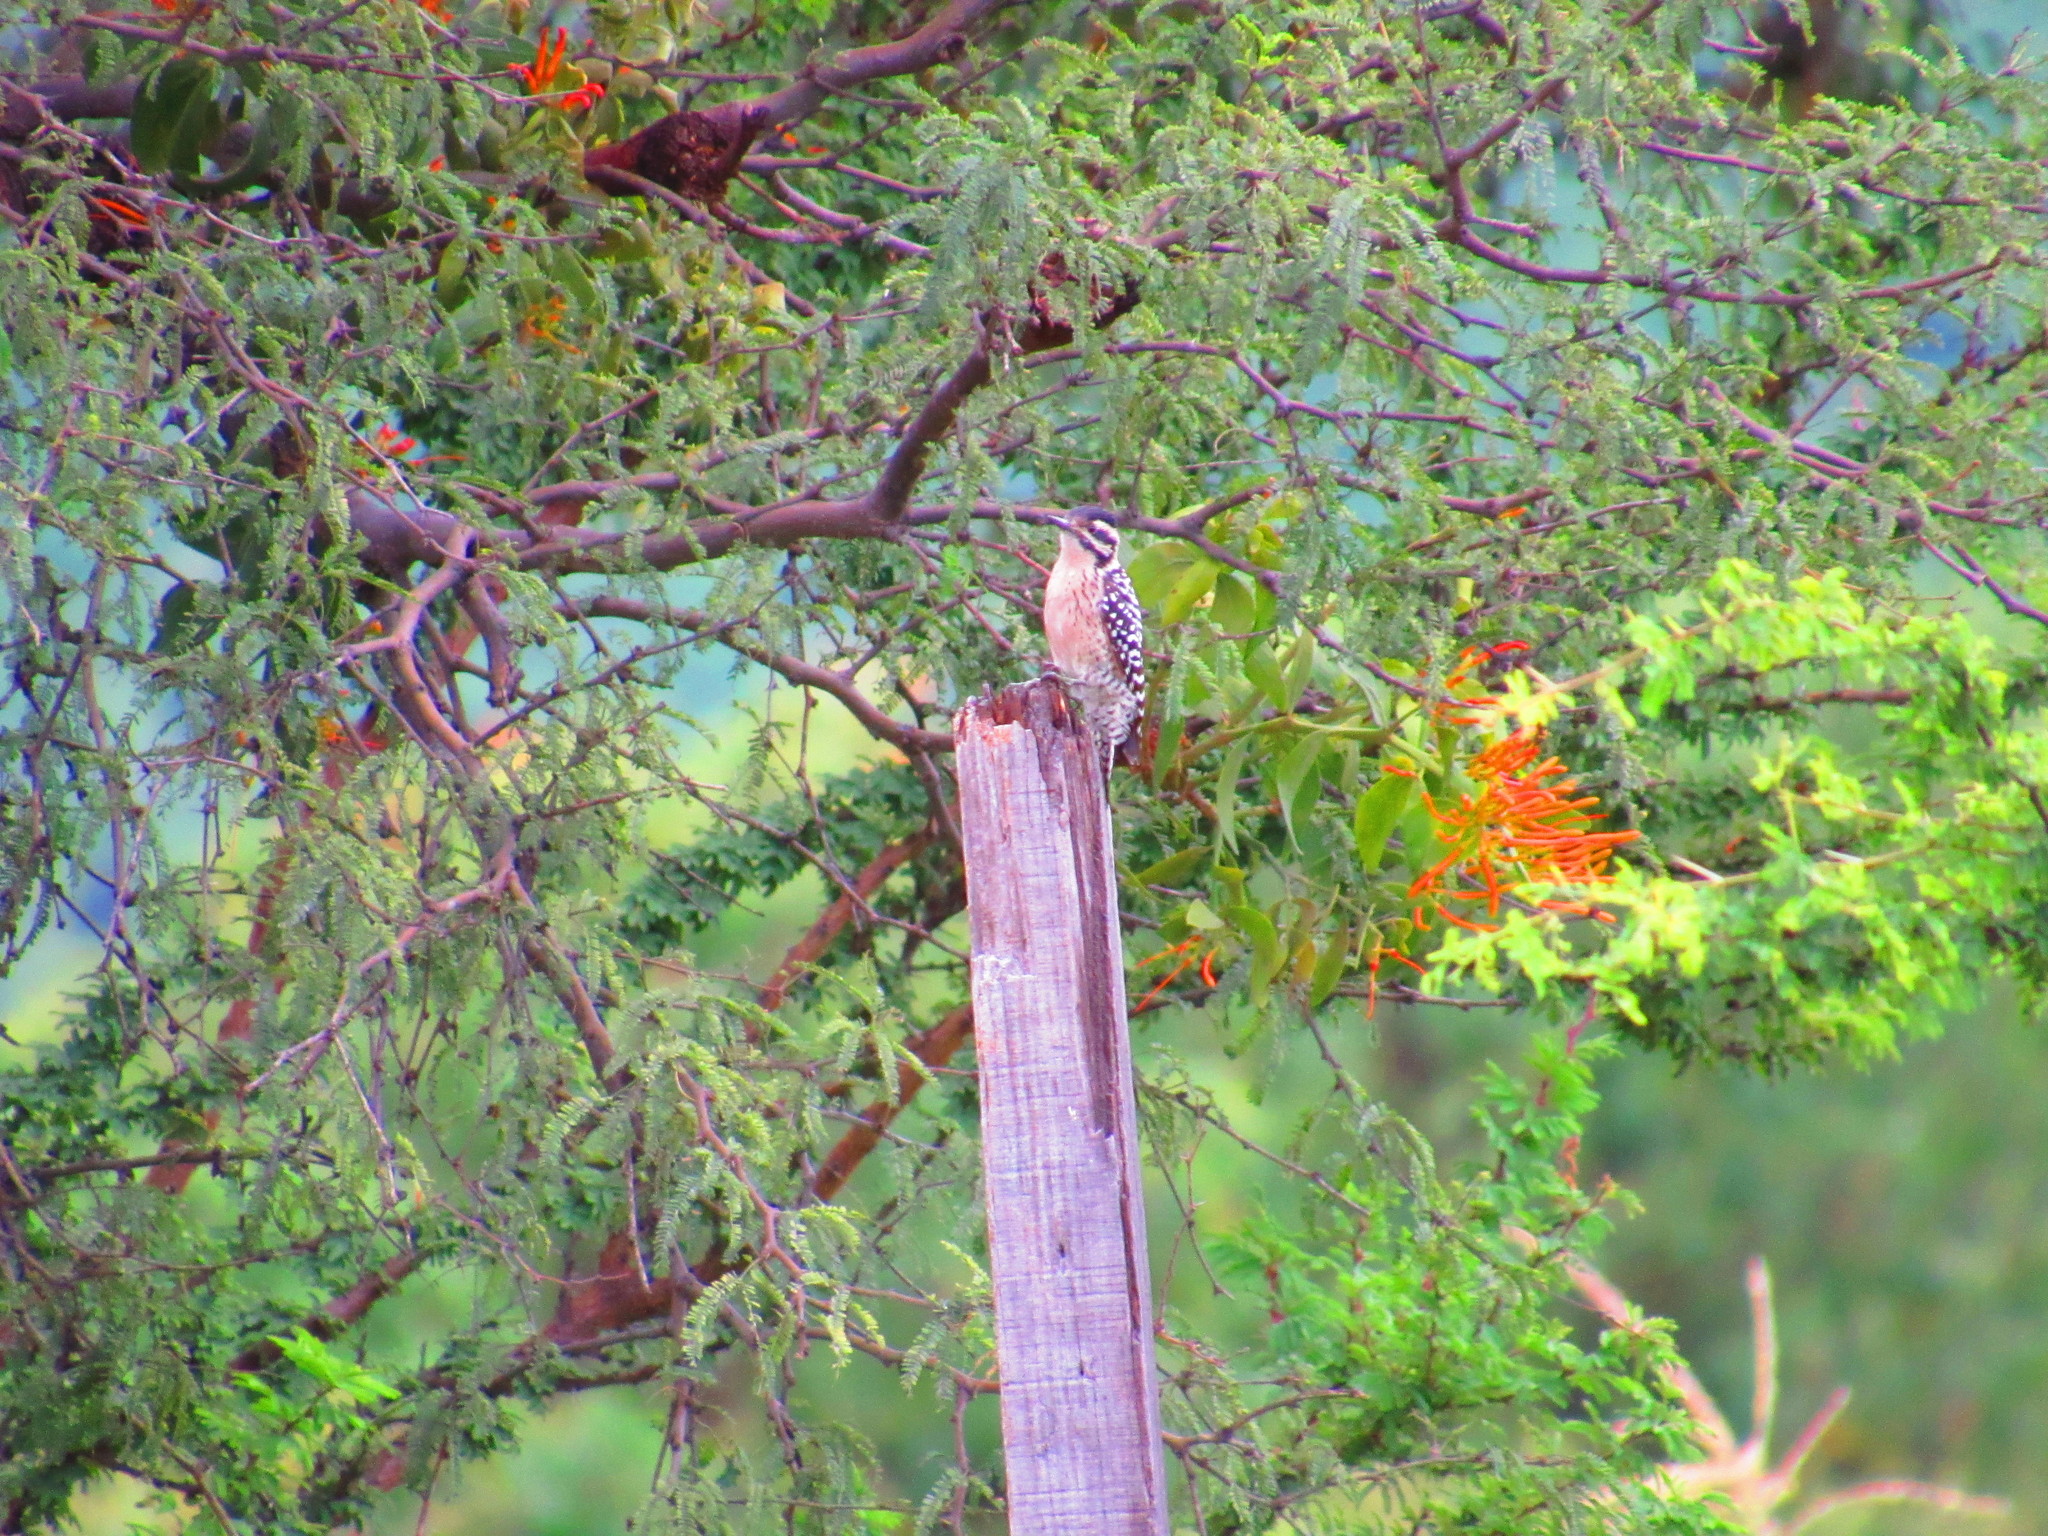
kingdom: Animalia
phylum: Chordata
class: Aves
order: Piciformes
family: Picidae
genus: Dryobates
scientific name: Dryobates scalaris
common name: Ladder-backed woodpecker
